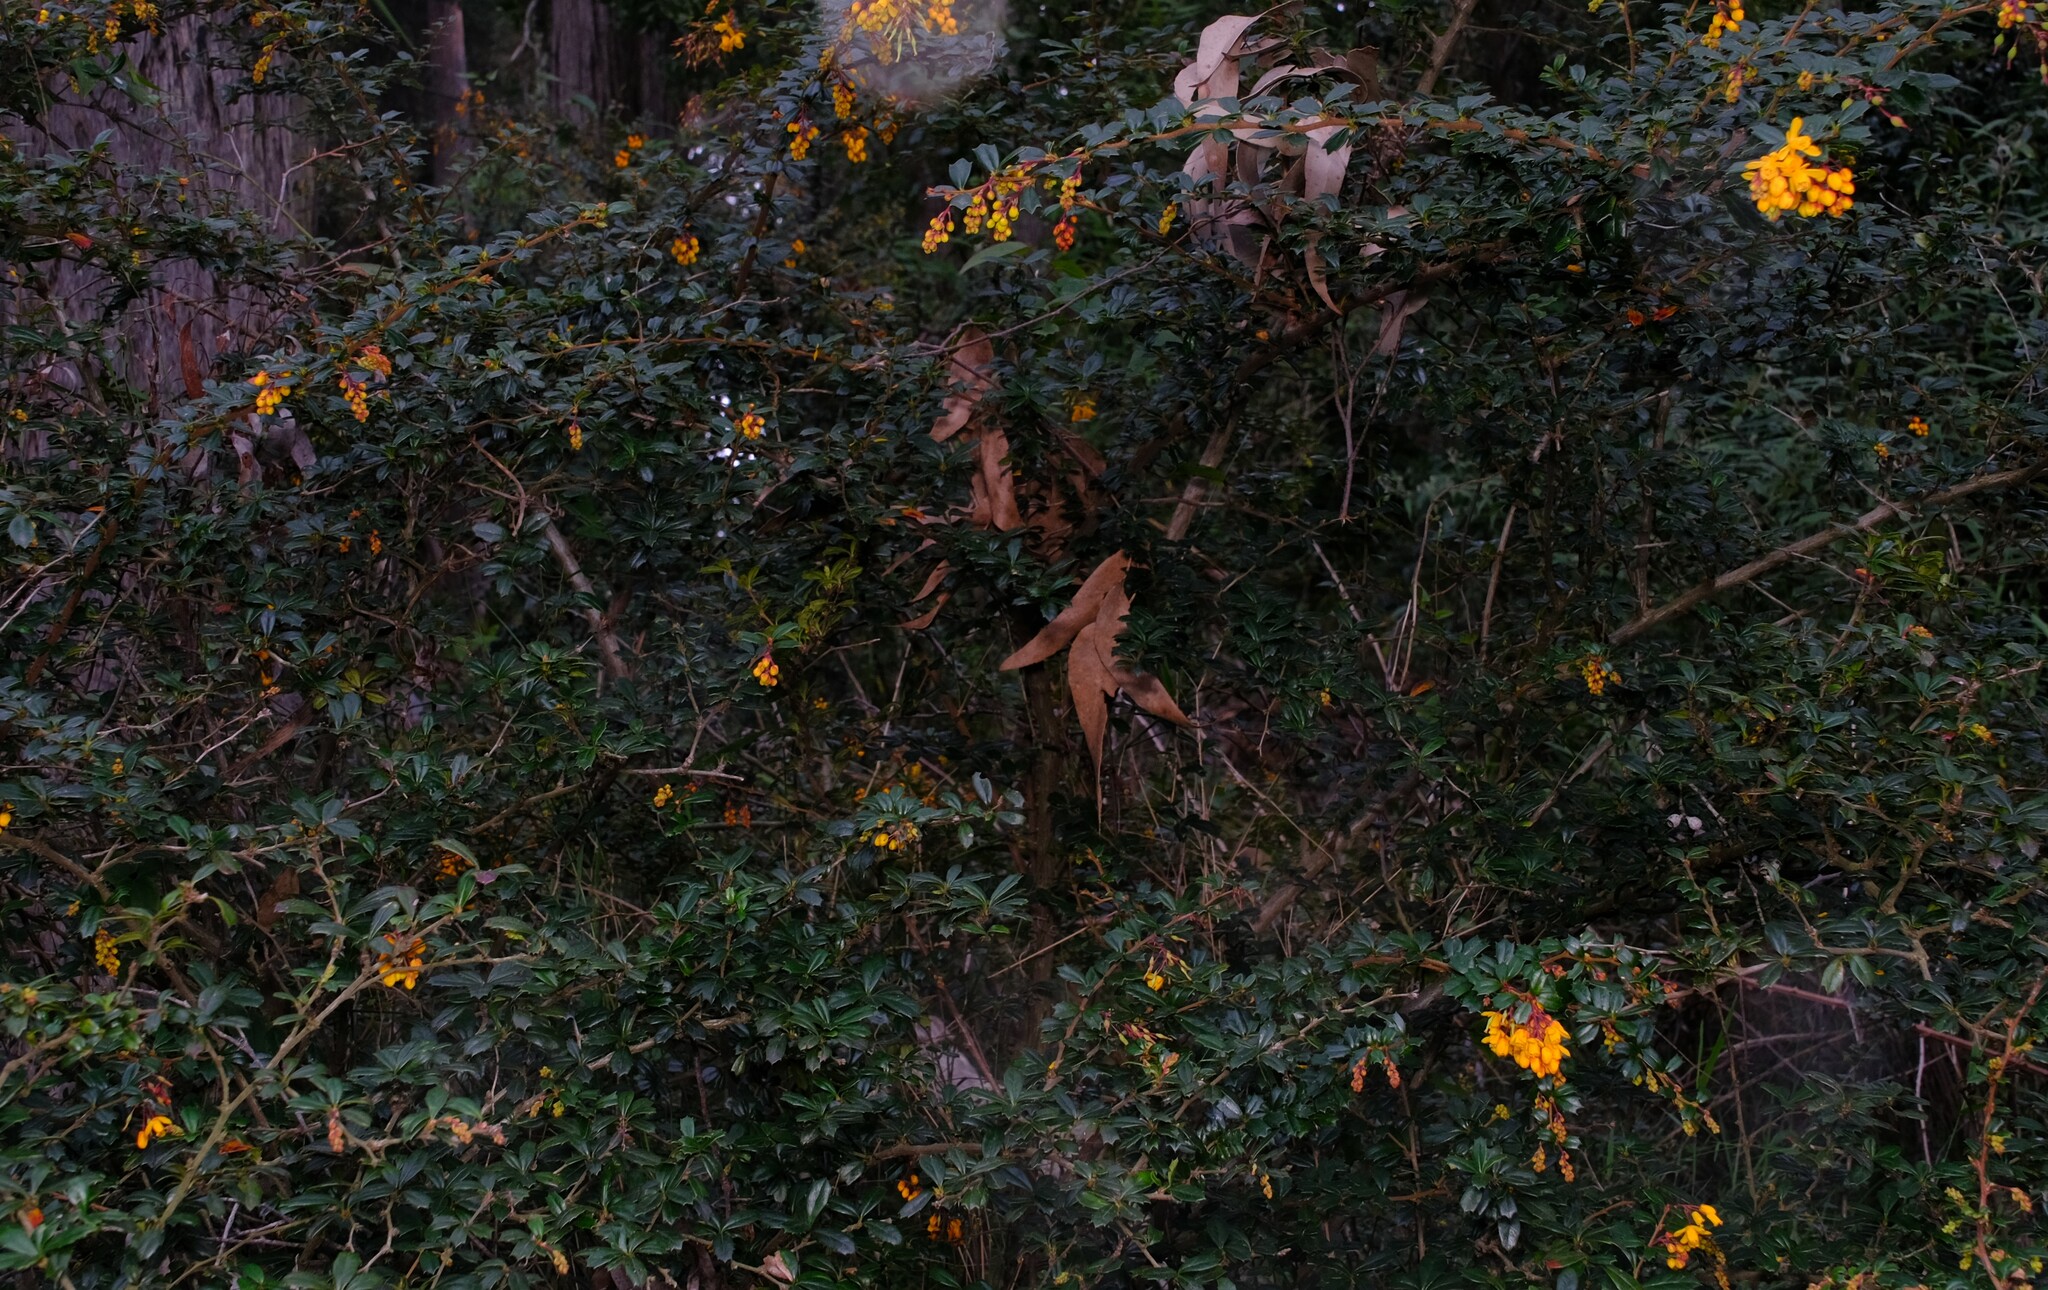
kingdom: Plantae
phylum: Tracheophyta
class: Magnoliopsida
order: Ranunculales
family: Berberidaceae
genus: Berberis
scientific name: Berberis darwinii
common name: Darwin's barberry
